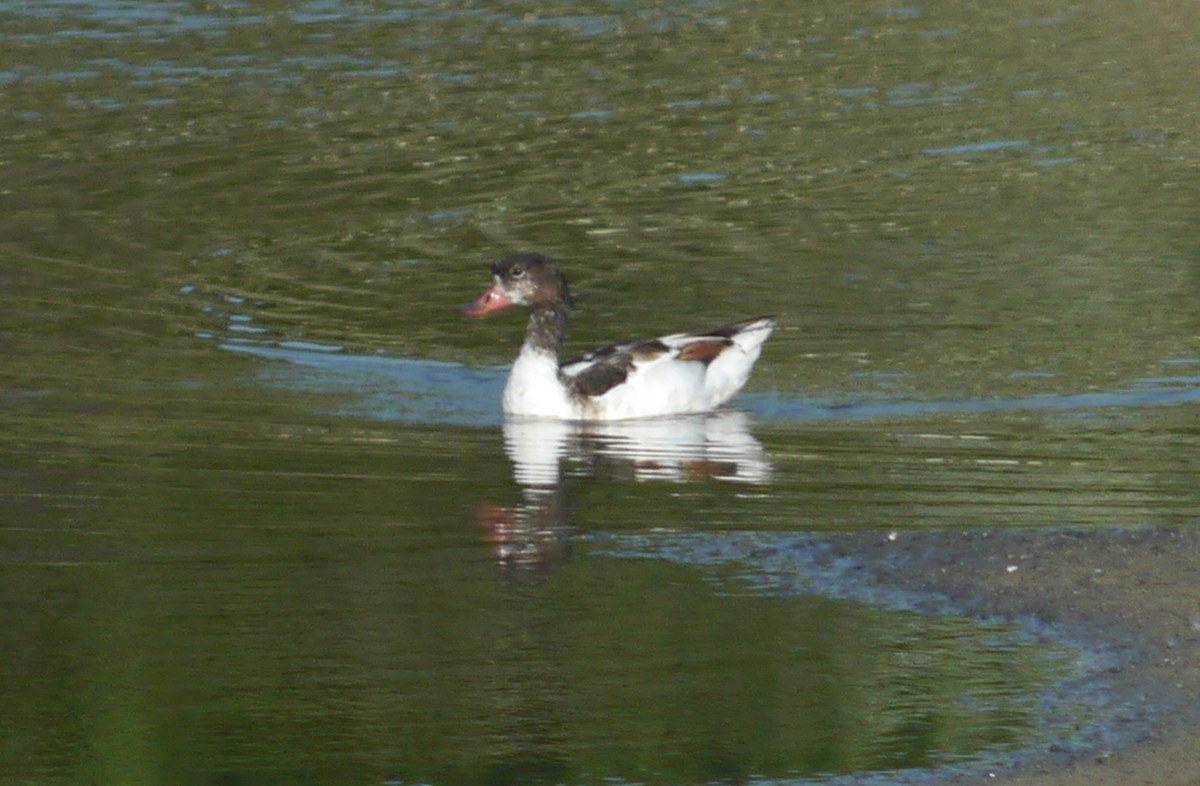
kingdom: Animalia
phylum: Chordata
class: Aves
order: Anseriformes
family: Anatidae
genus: Tadorna
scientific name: Tadorna tadorna
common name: Common shelduck
